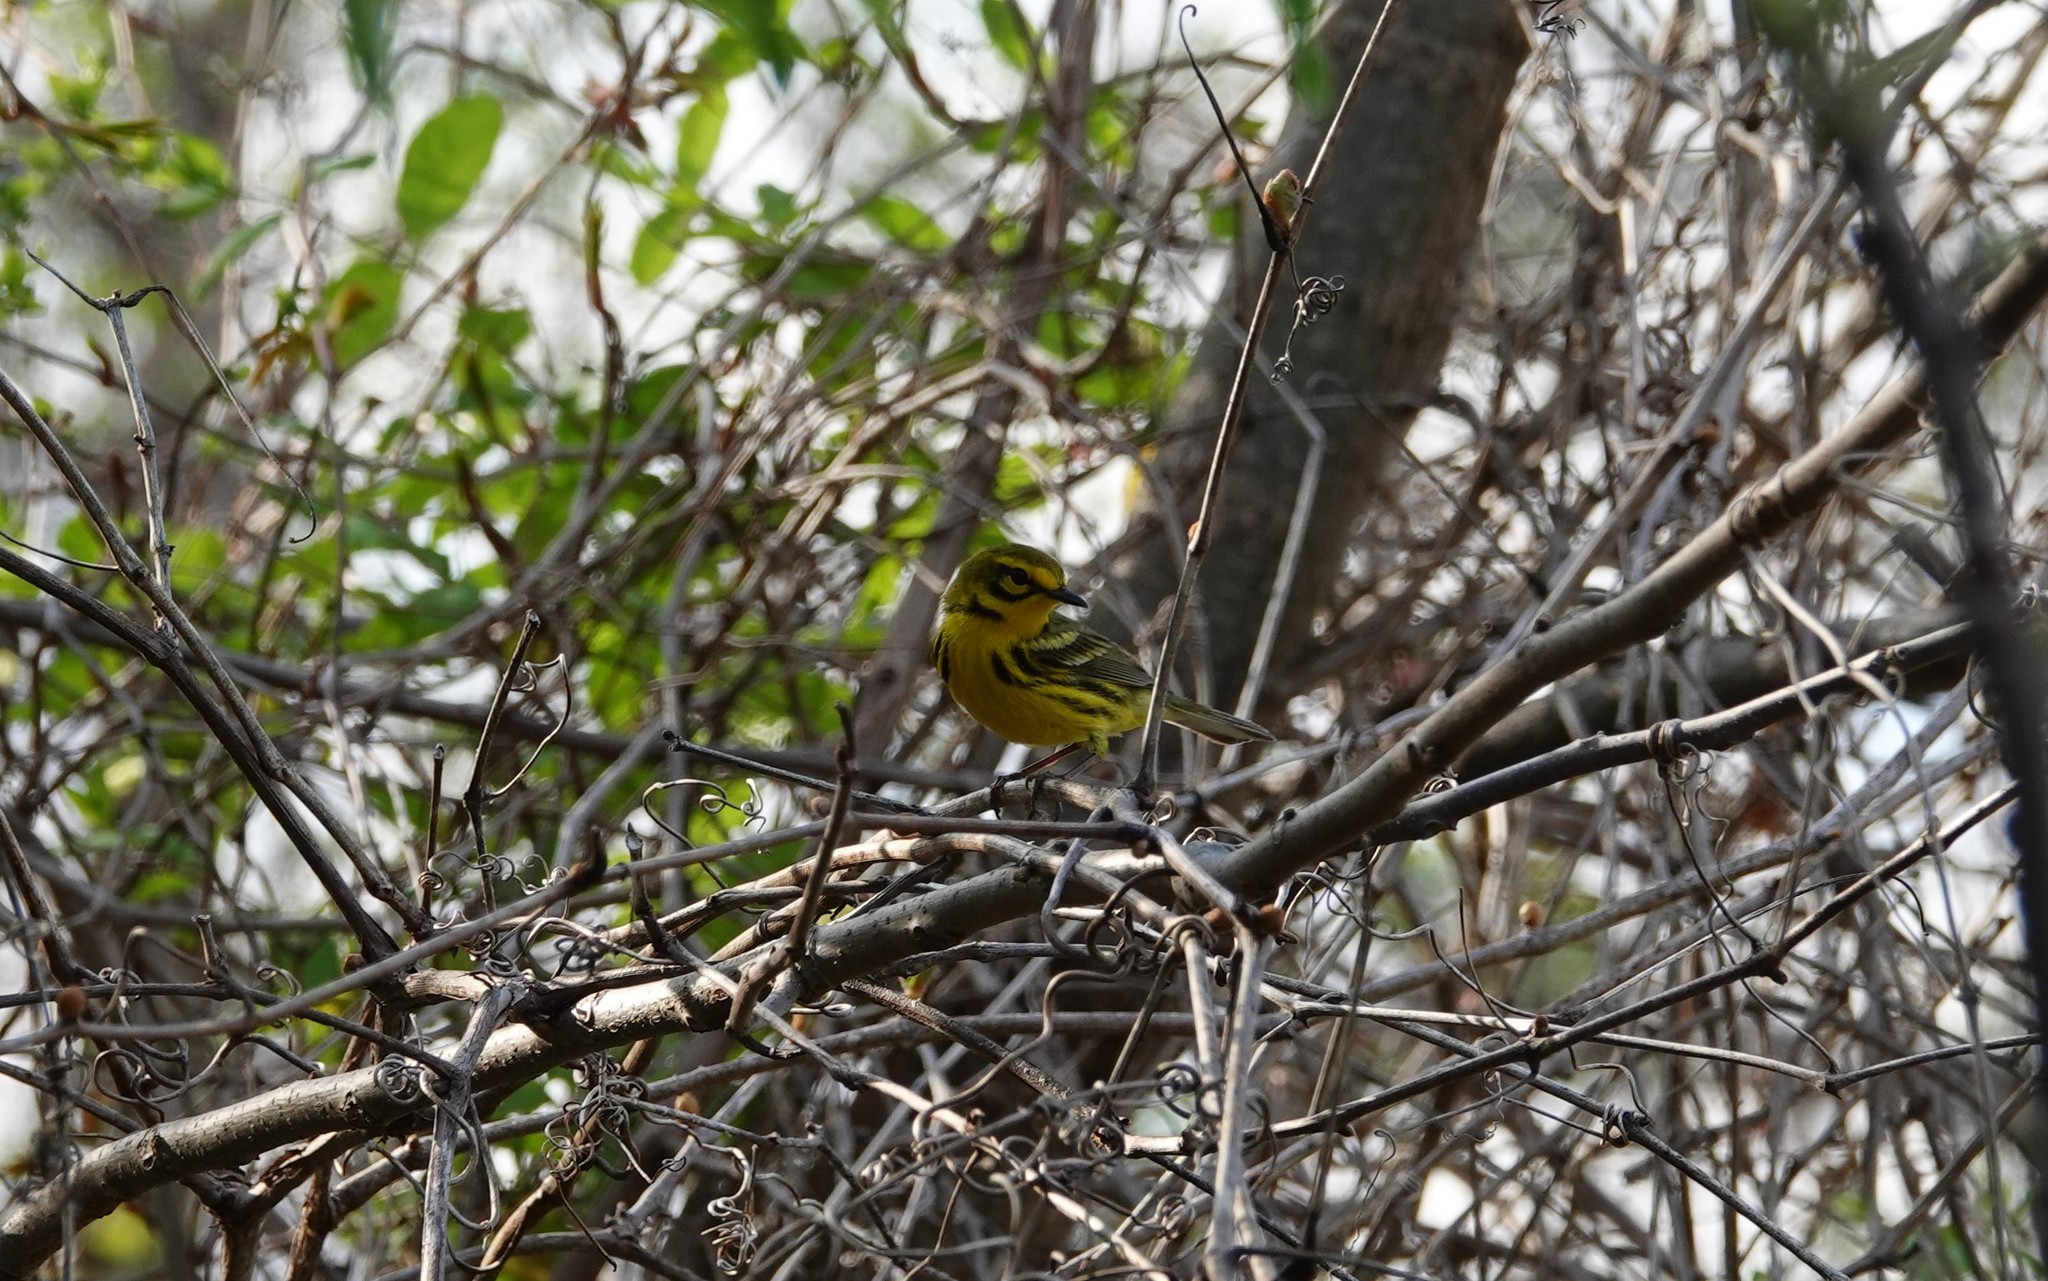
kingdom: Animalia
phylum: Chordata
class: Aves
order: Passeriformes
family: Parulidae
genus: Setophaga
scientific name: Setophaga discolor
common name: Prairie warbler
